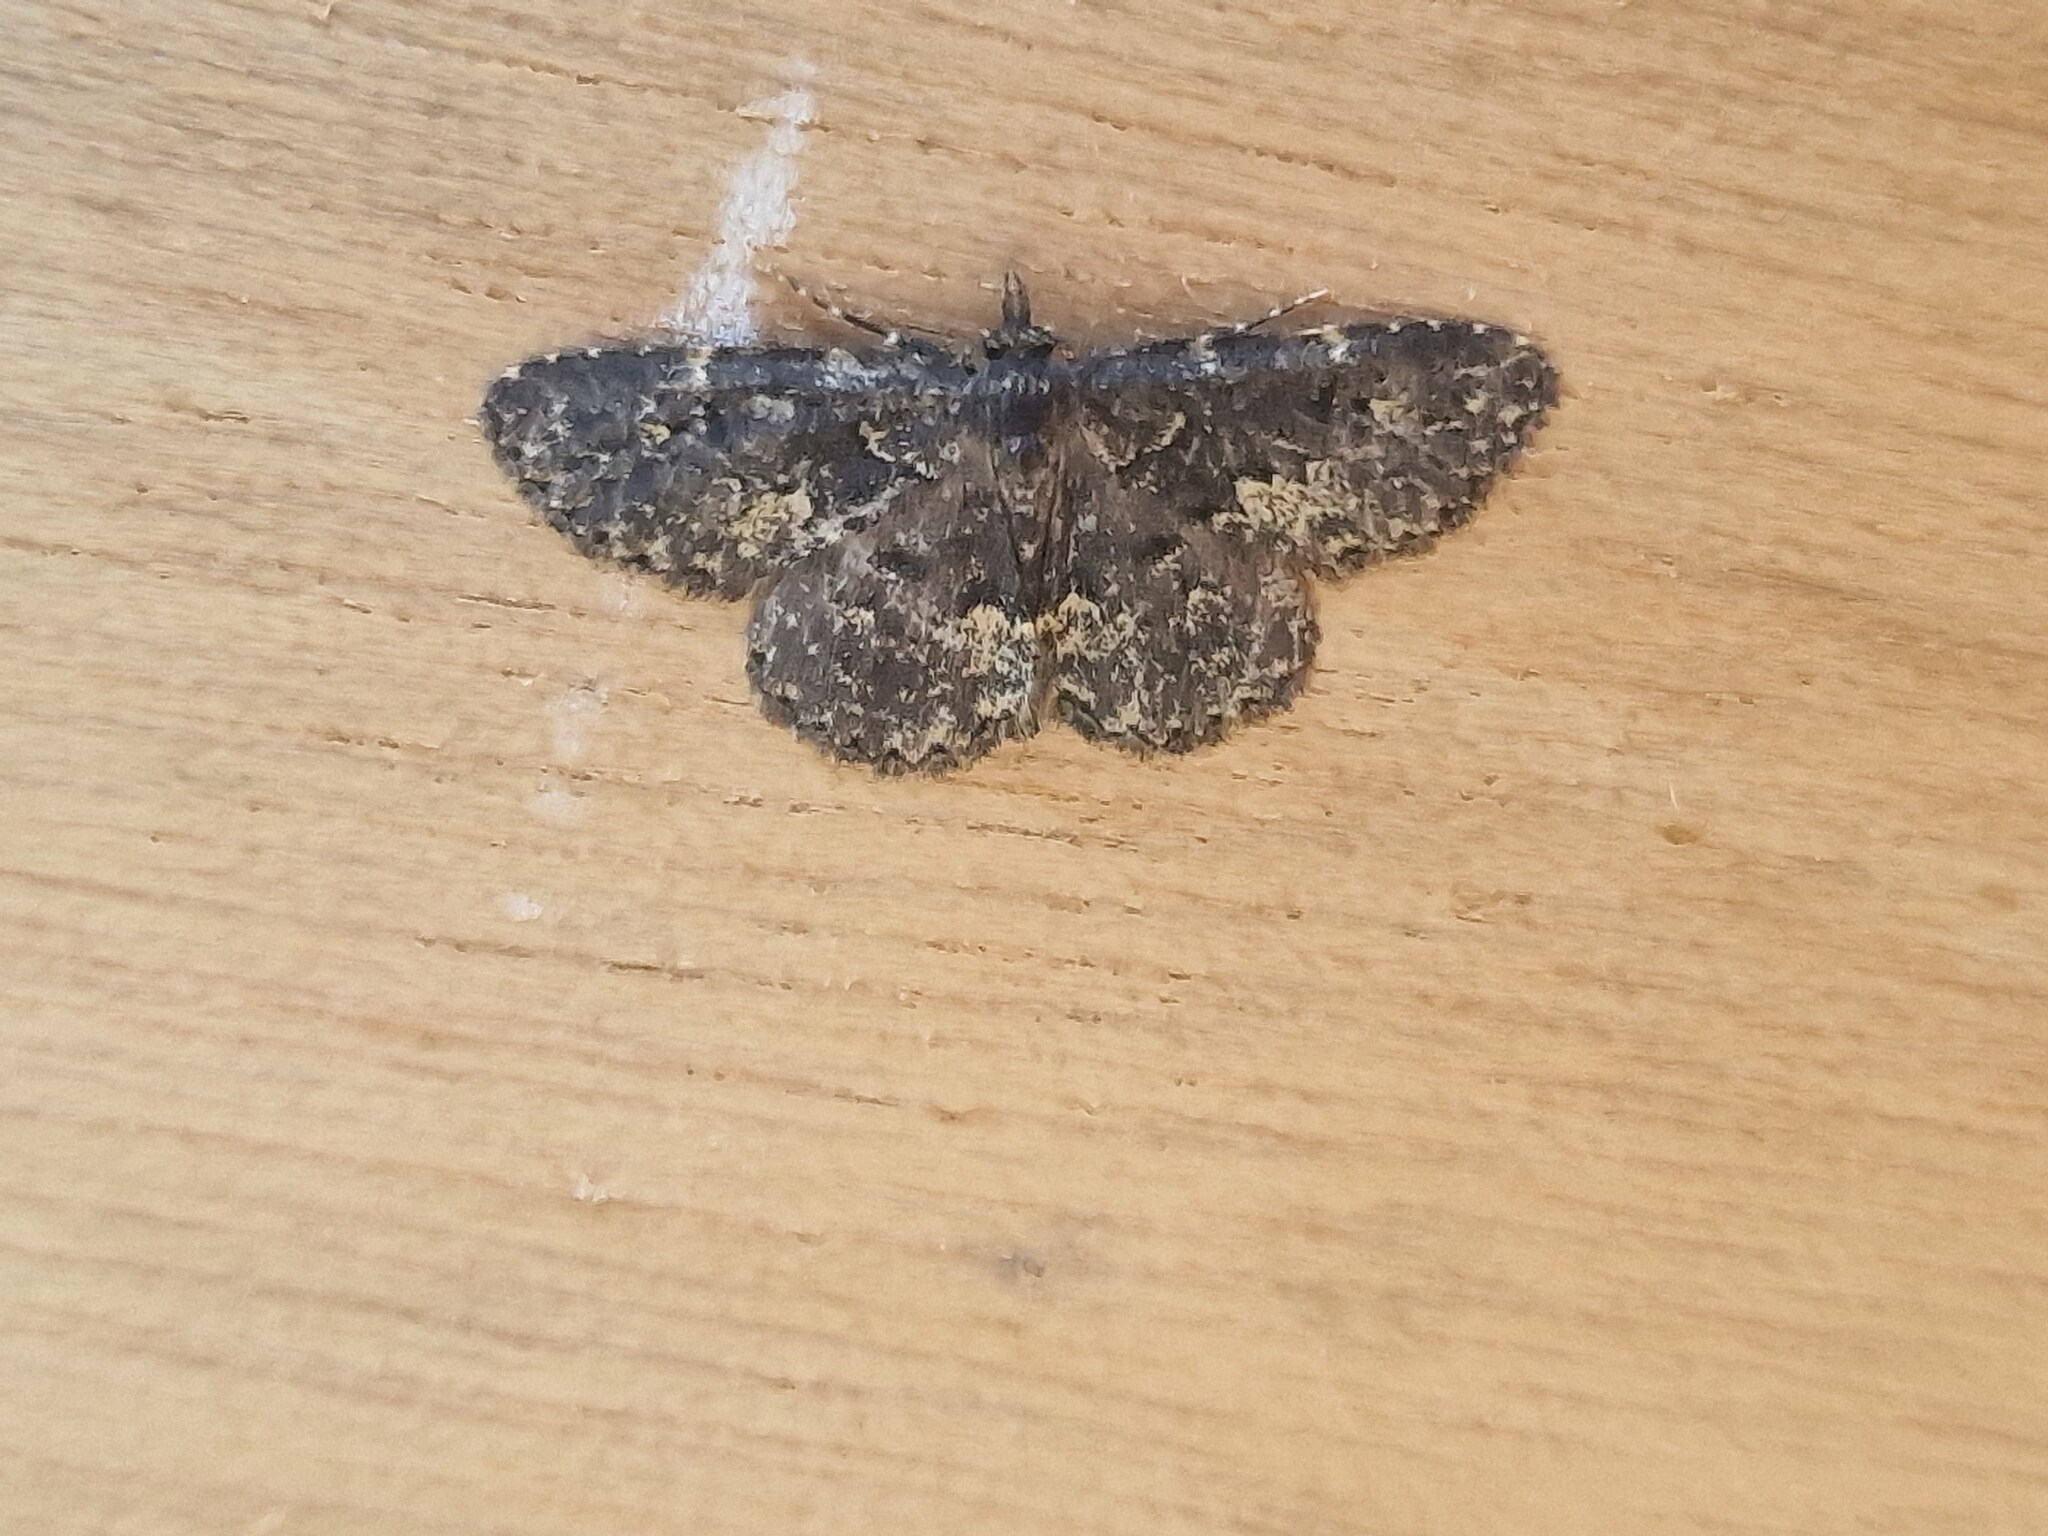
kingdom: Animalia
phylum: Arthropoda
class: Insecta
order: Lepidoptera
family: Erebidae
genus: Parascotia
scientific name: Parascotia fuliginaria
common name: Waved black
